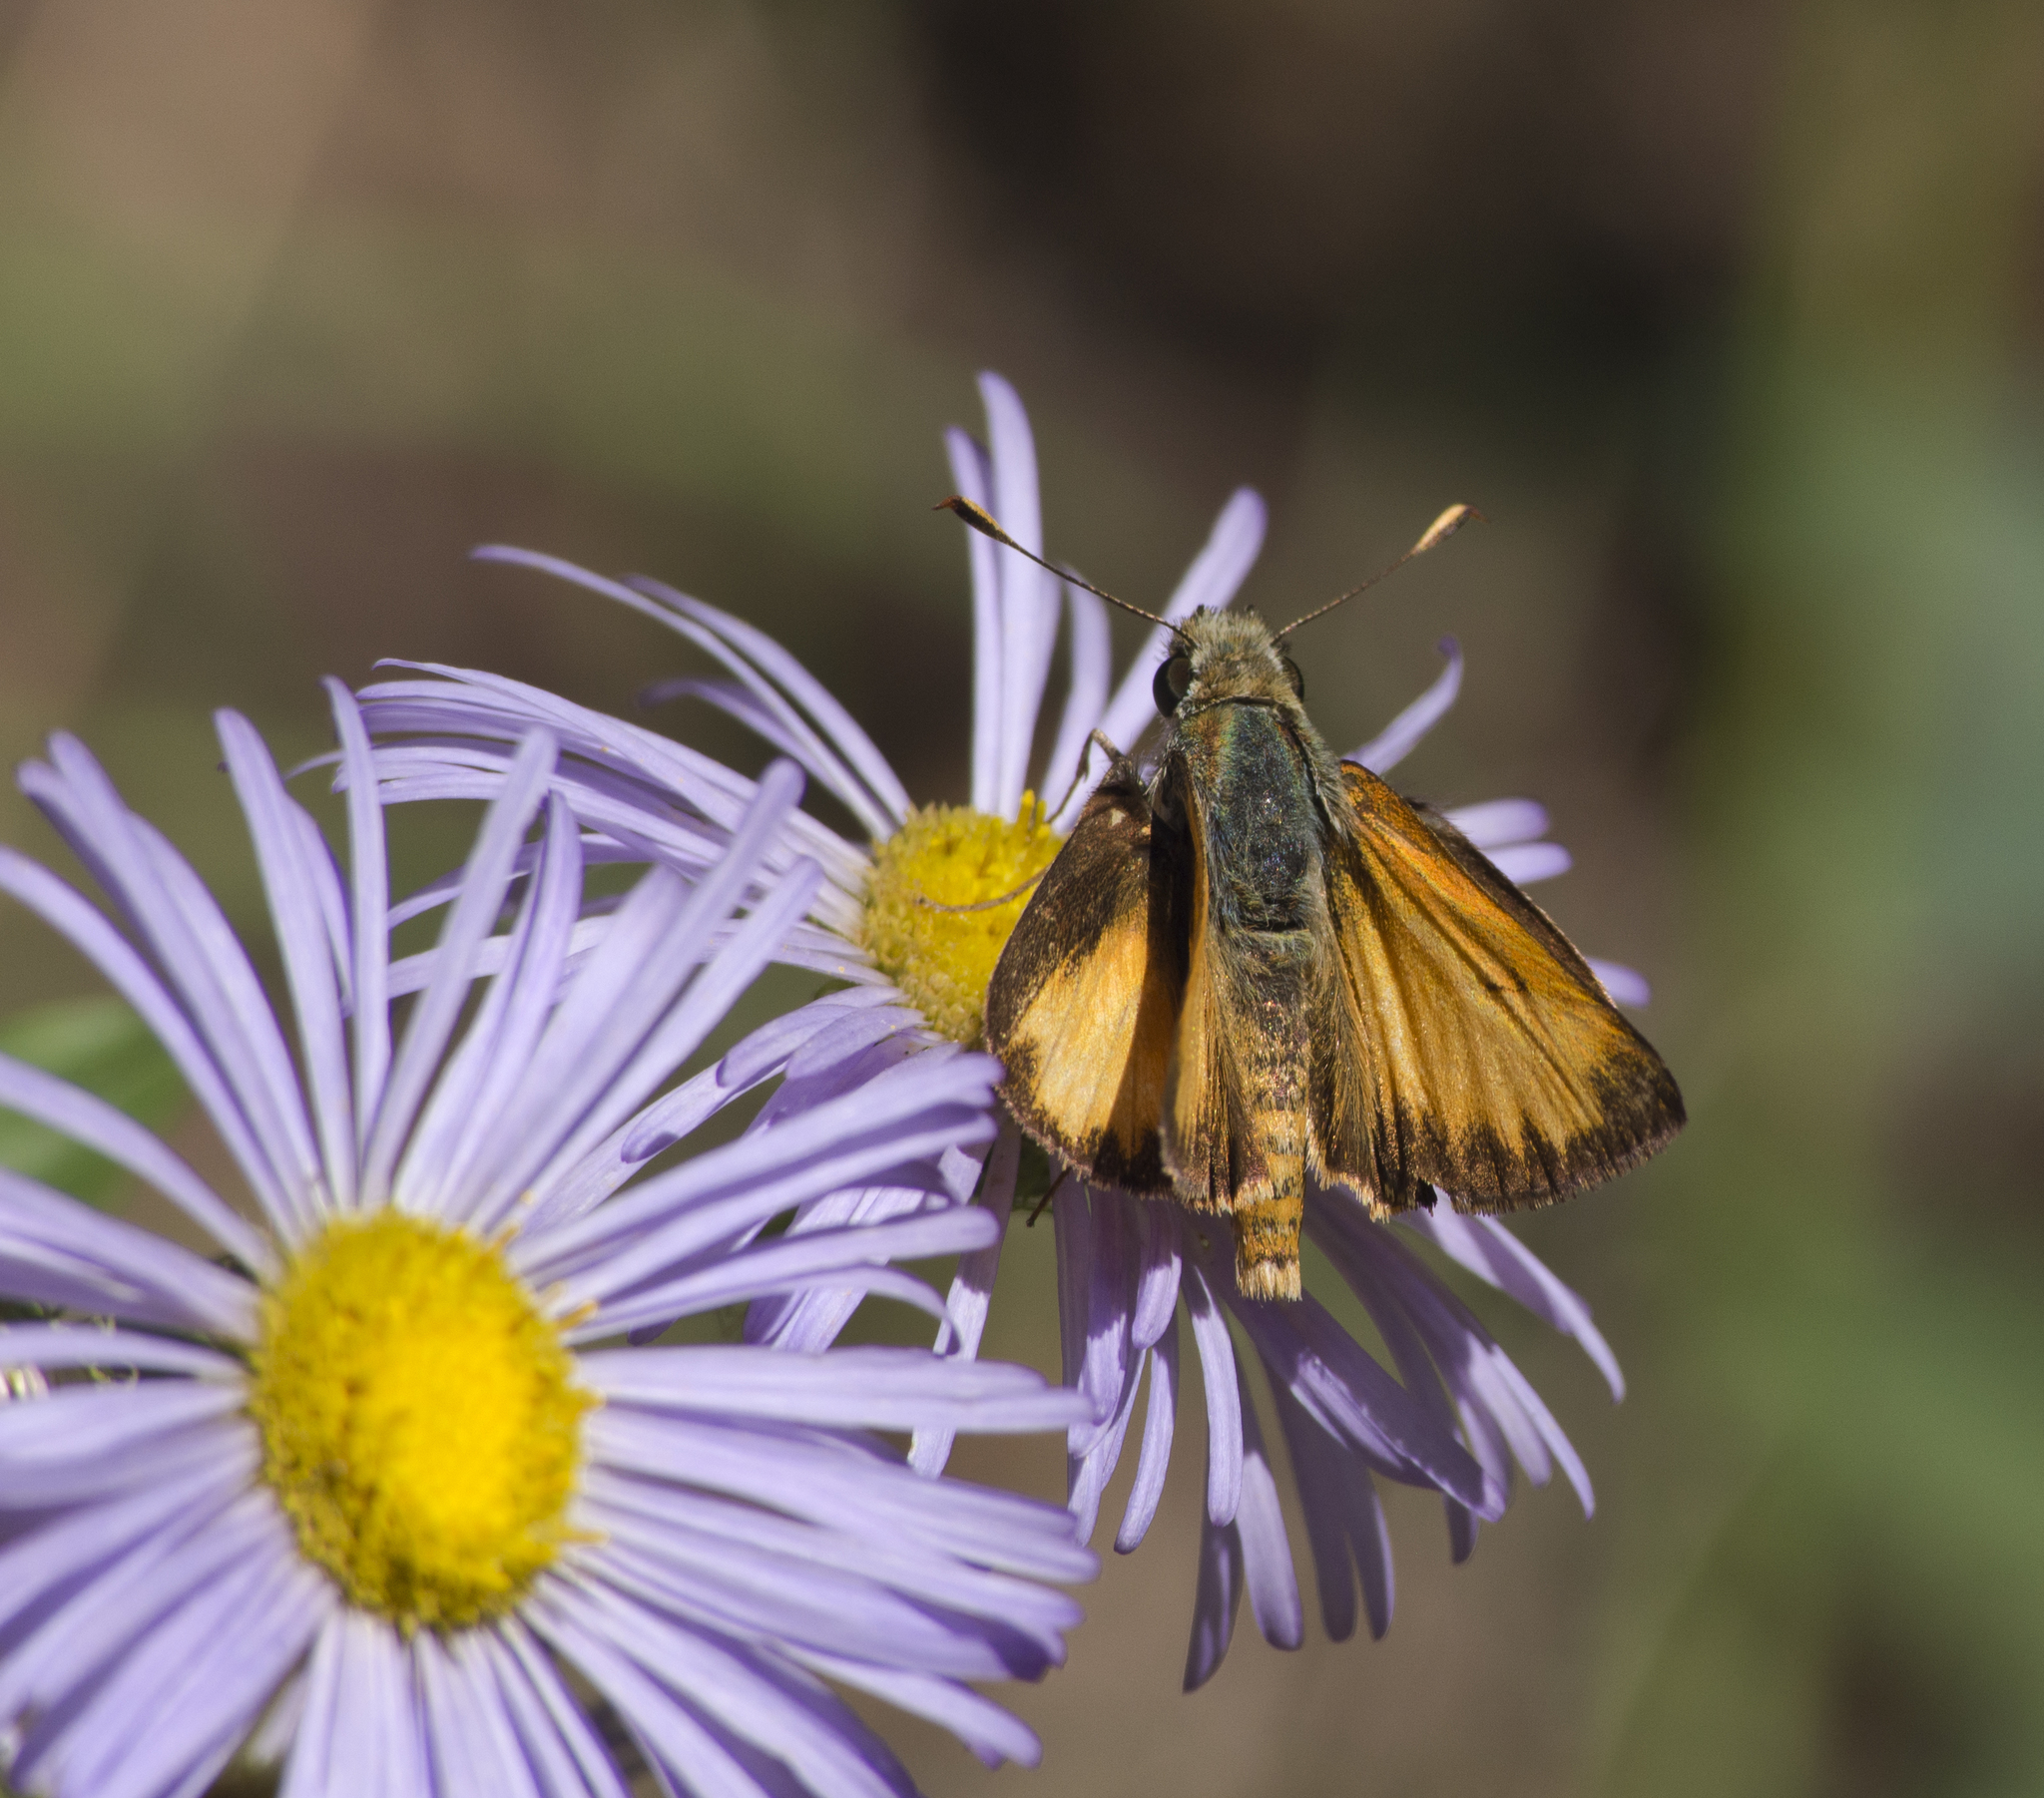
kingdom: Animalia
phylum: Arthropoda
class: Insecta
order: Lepidoptera
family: Hesperiidae
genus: Lon
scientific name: Lon taxiles
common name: Taxiles skipper
